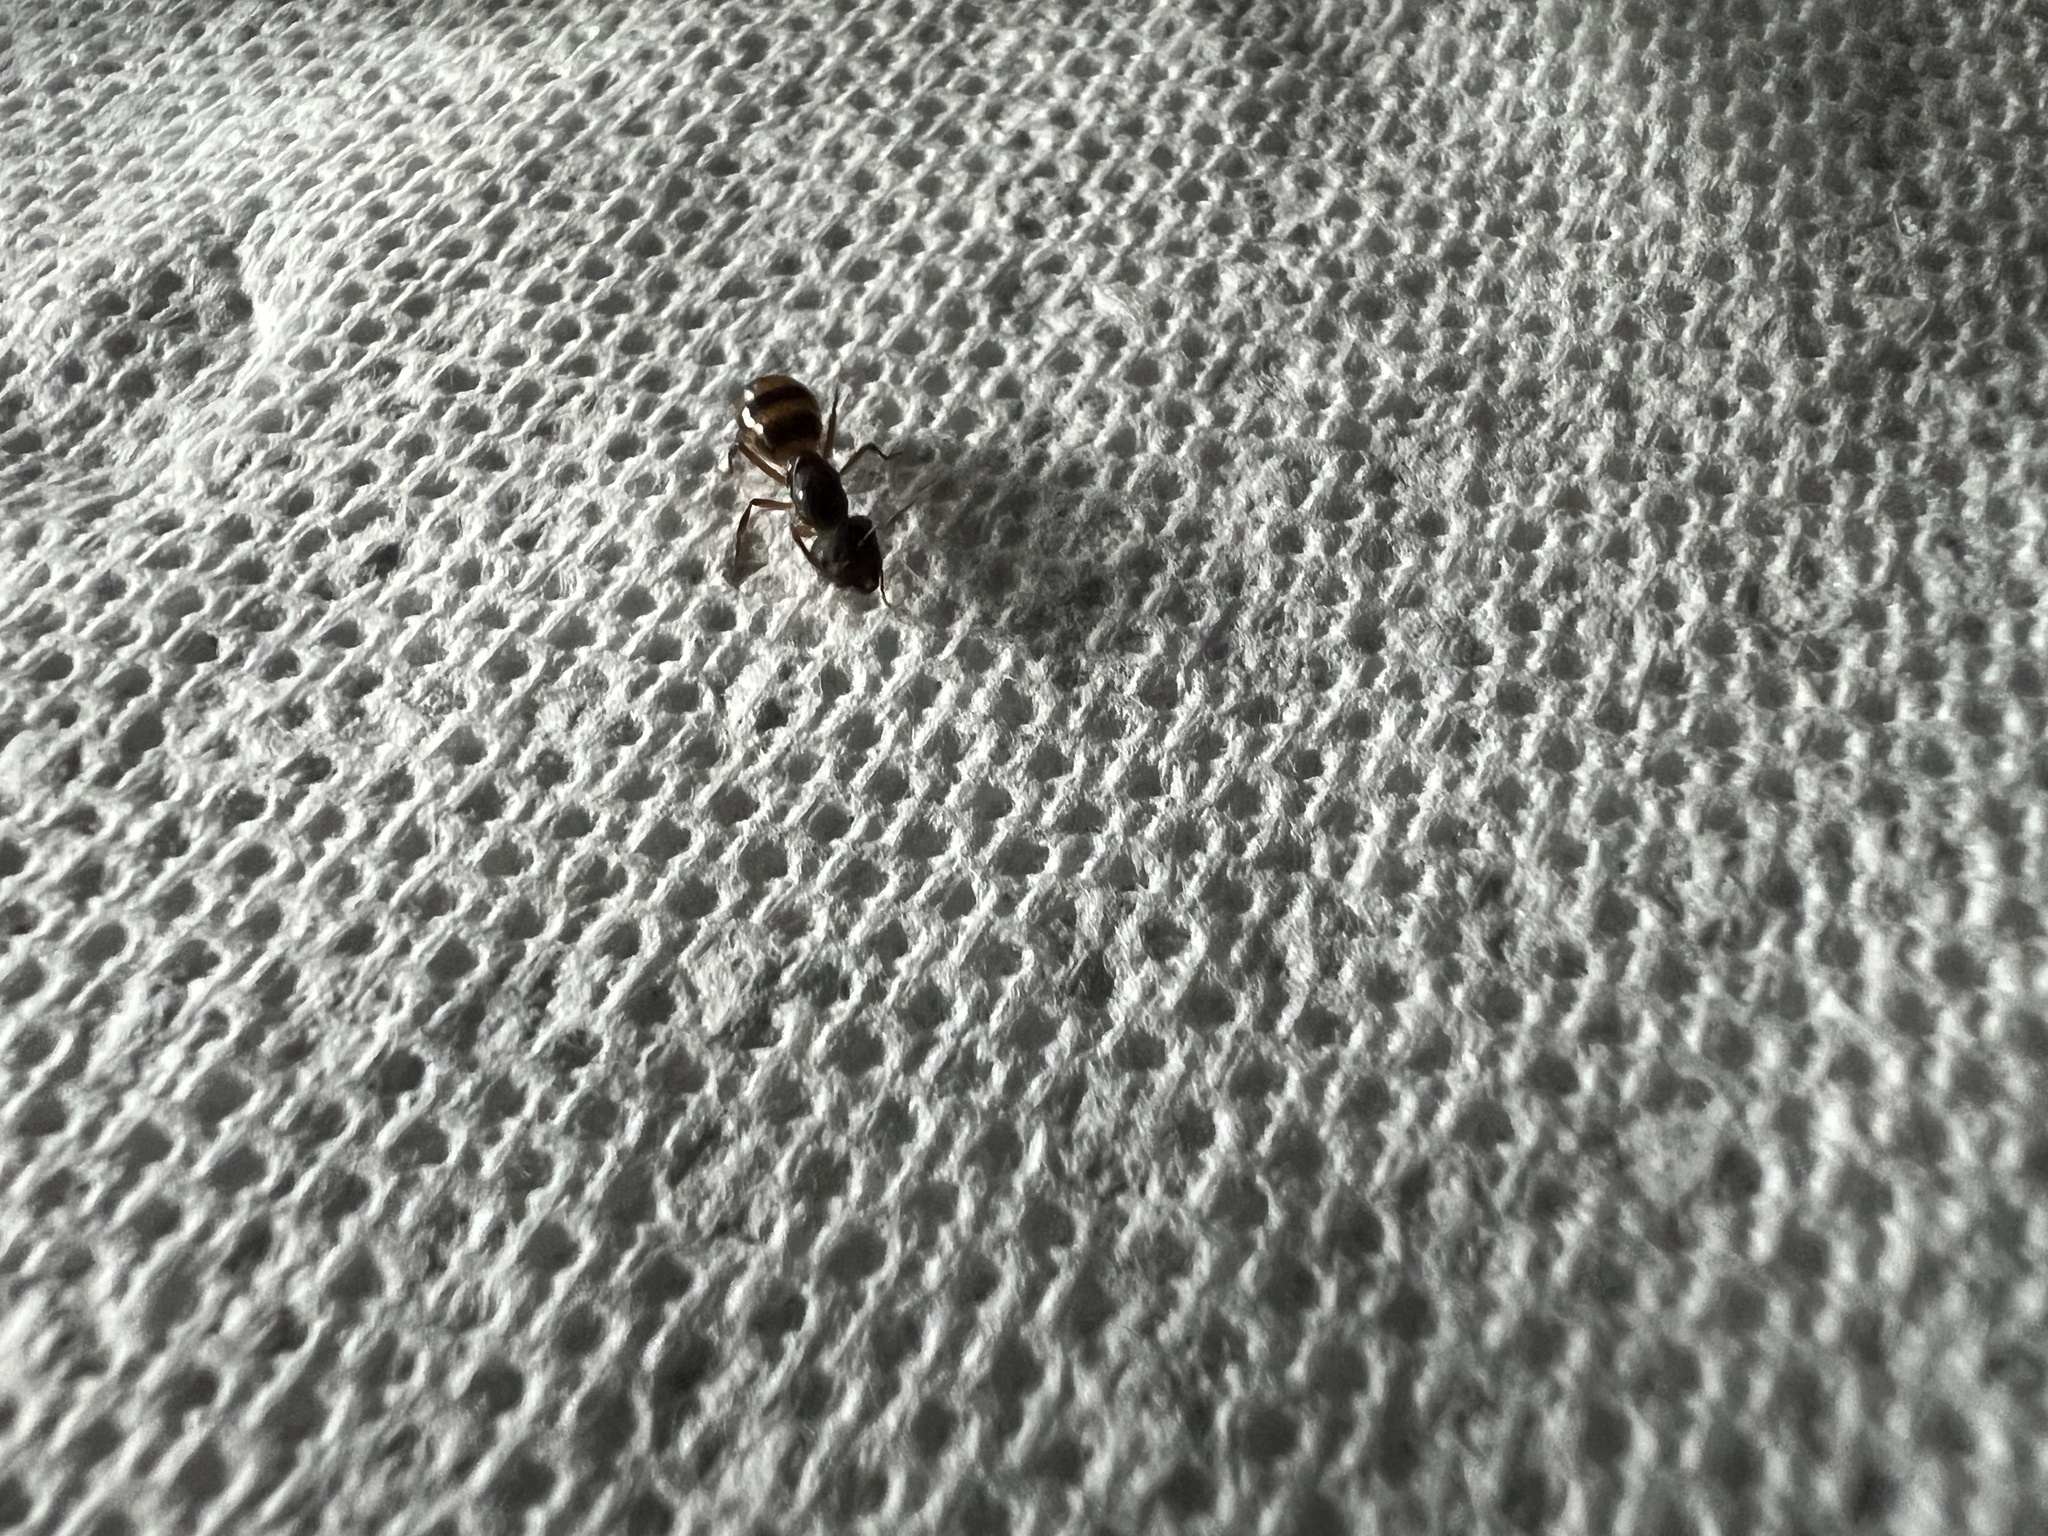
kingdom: Animalia
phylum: Arthropoda
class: Insecta
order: Hymenoptera
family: Formicidae
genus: Camponotus
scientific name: Camponotus subbarbatus
